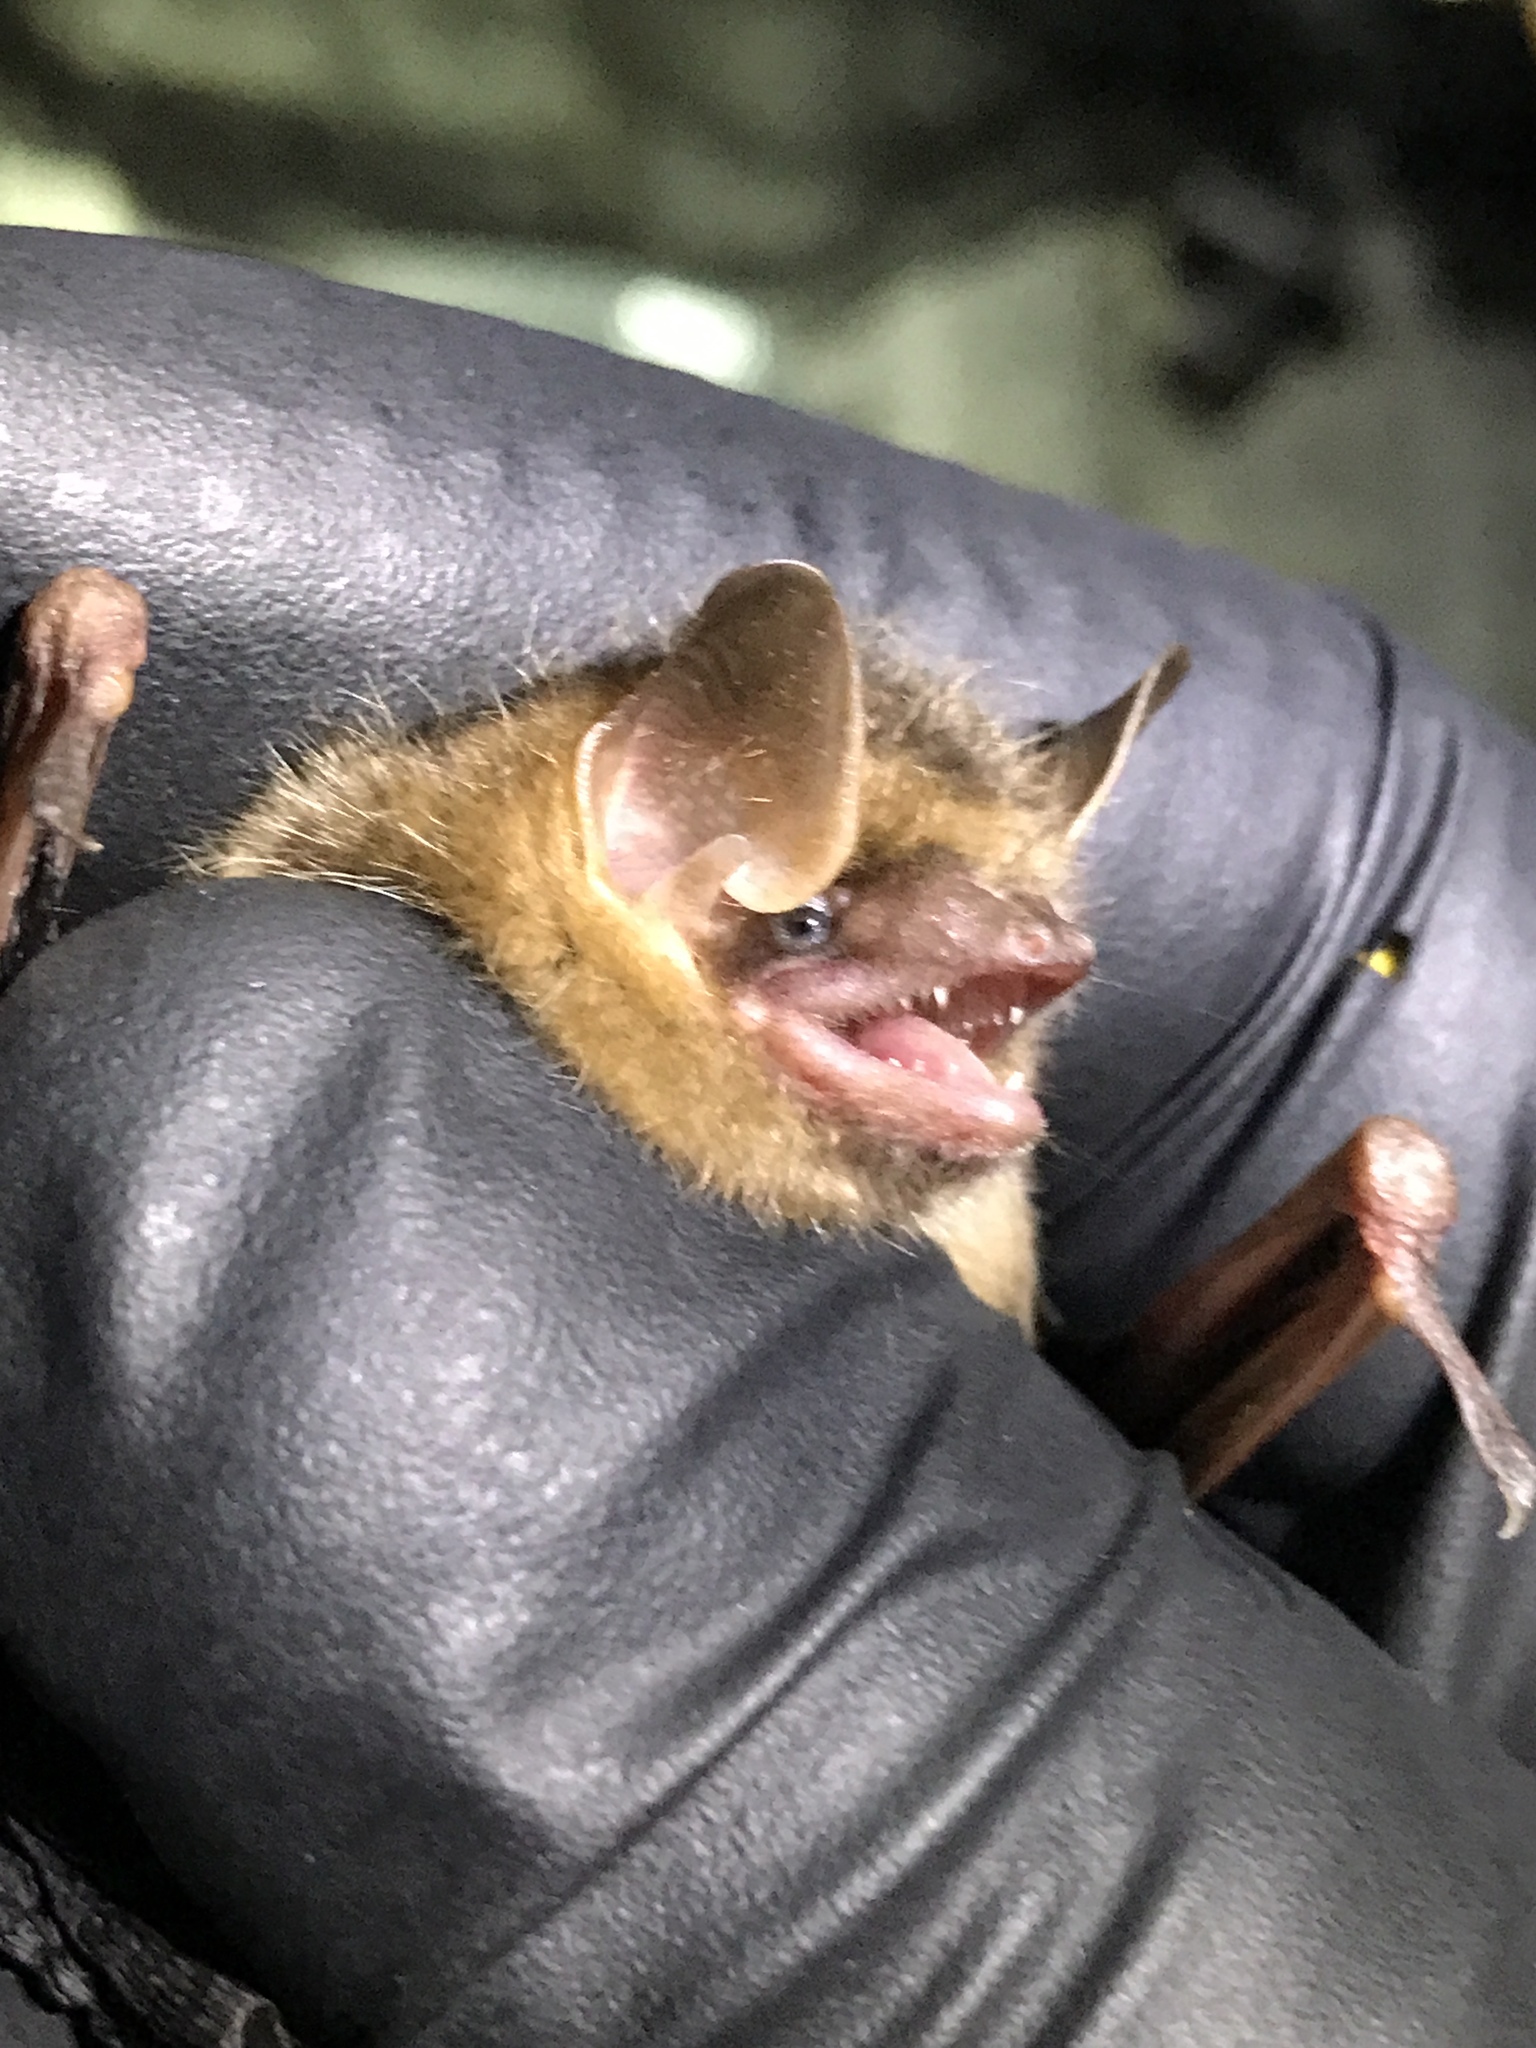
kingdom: Animalia
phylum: Chordata
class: Mammalia
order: Chiroptera
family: Vespertilionidae
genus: Perimyotis
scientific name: Perimyotis subflavus
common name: Eastern pipistrelle
